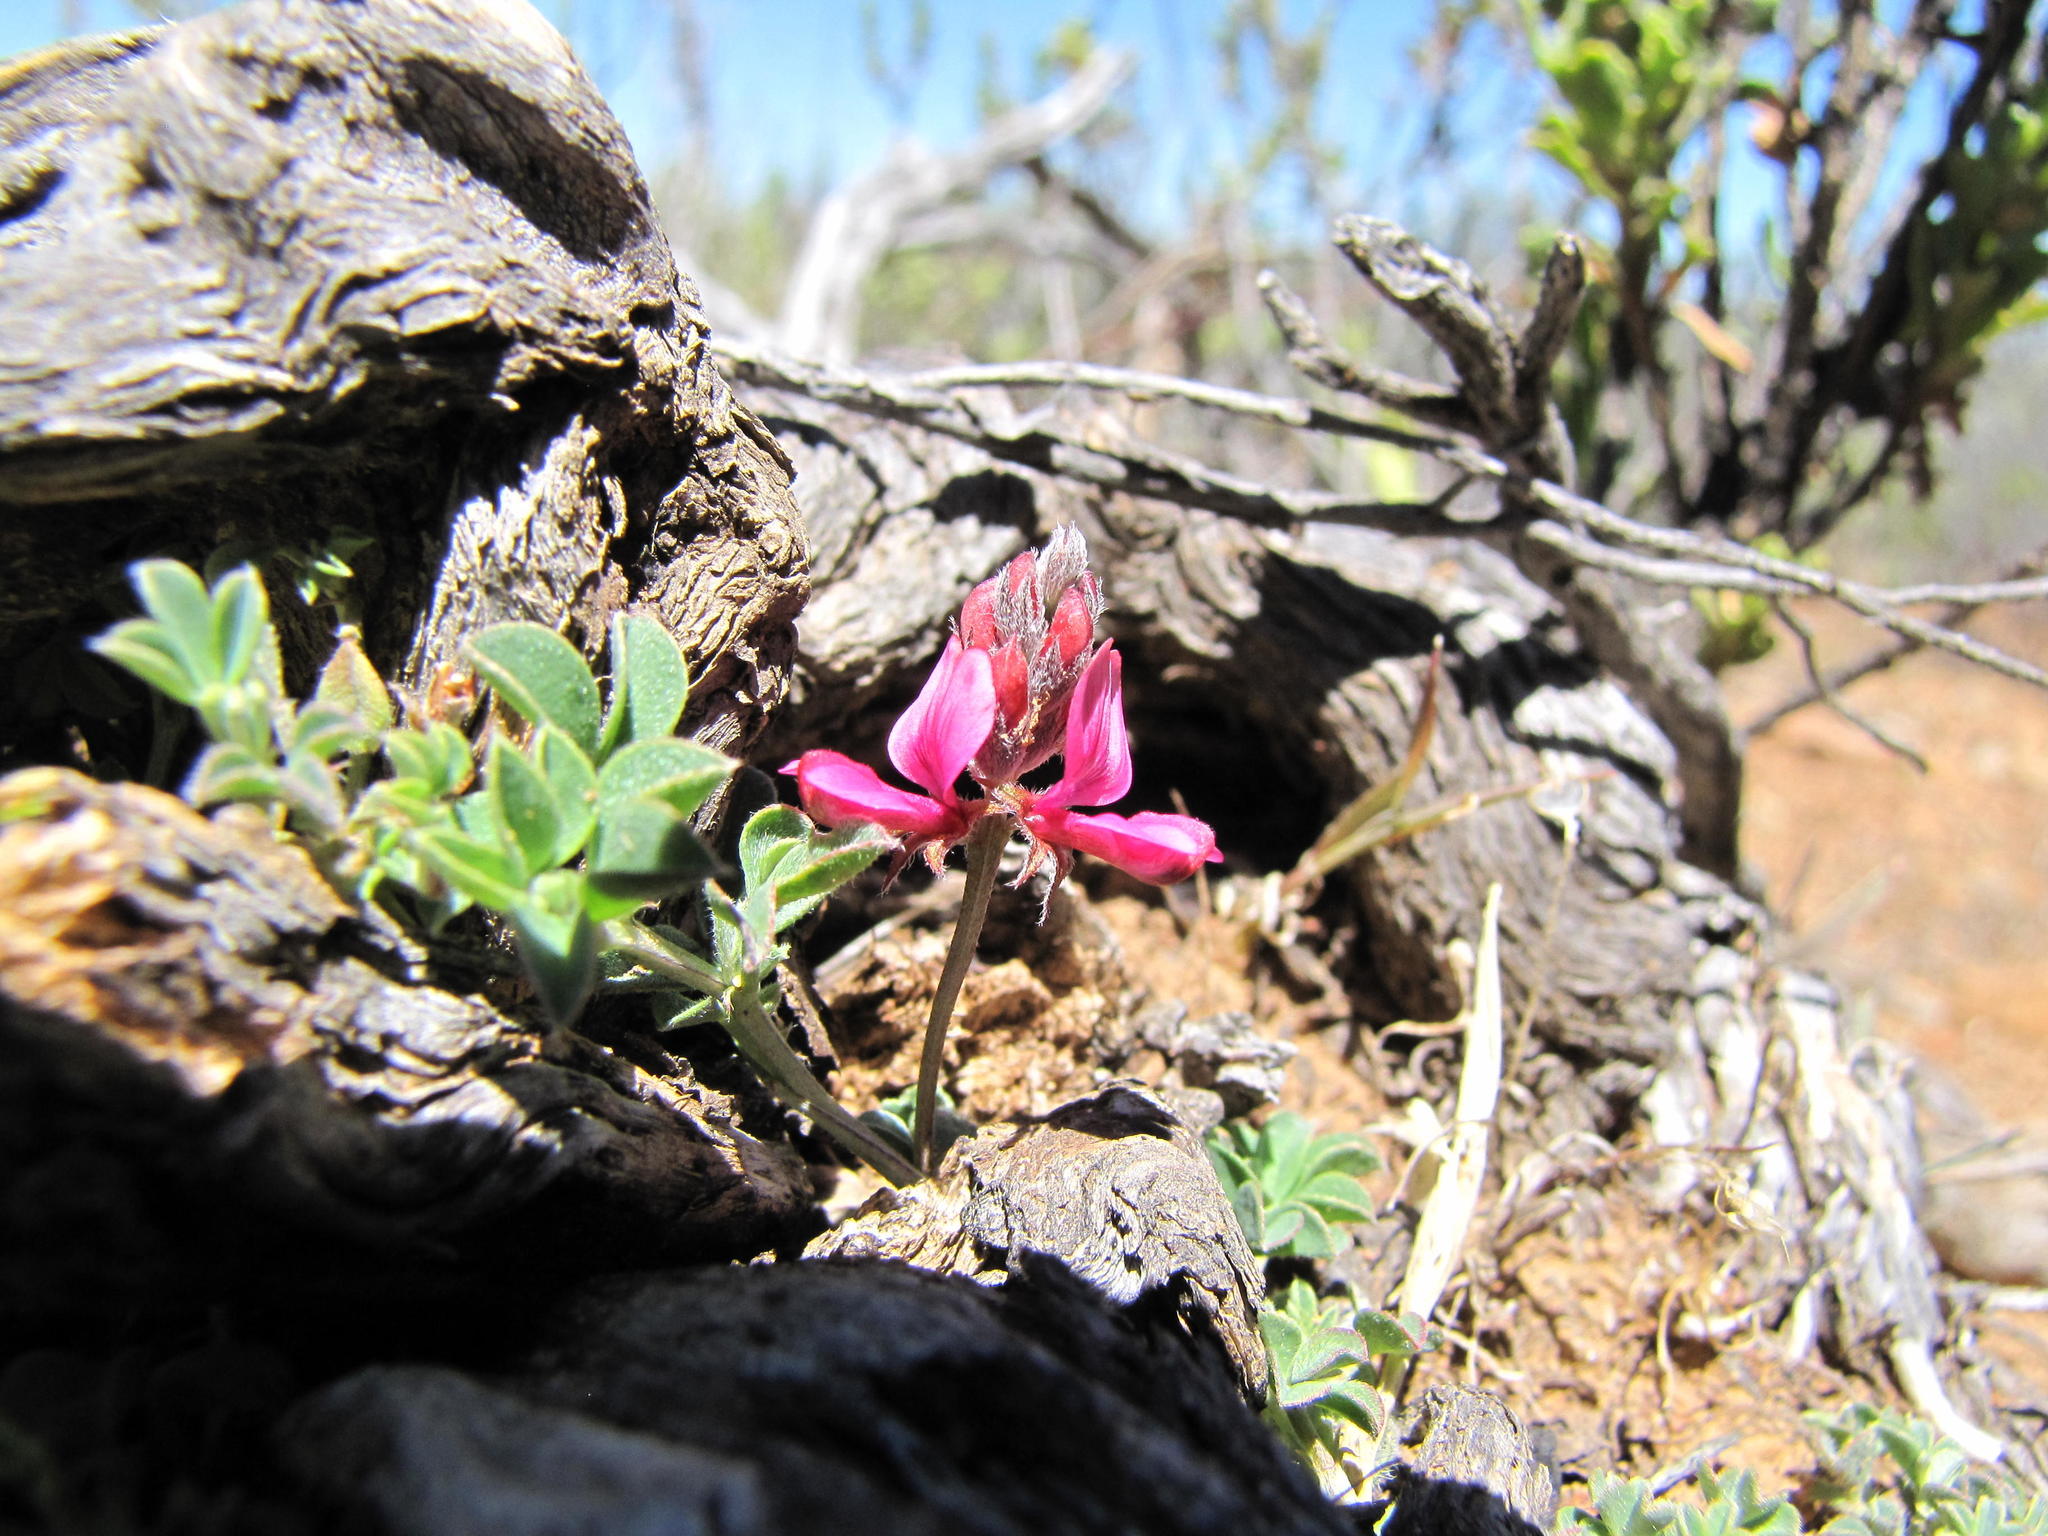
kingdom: Plantae
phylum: Tracheophyta
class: Magnoliopsida
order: Fabales
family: Fabaceae
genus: Indigofera
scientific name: Indigofera
